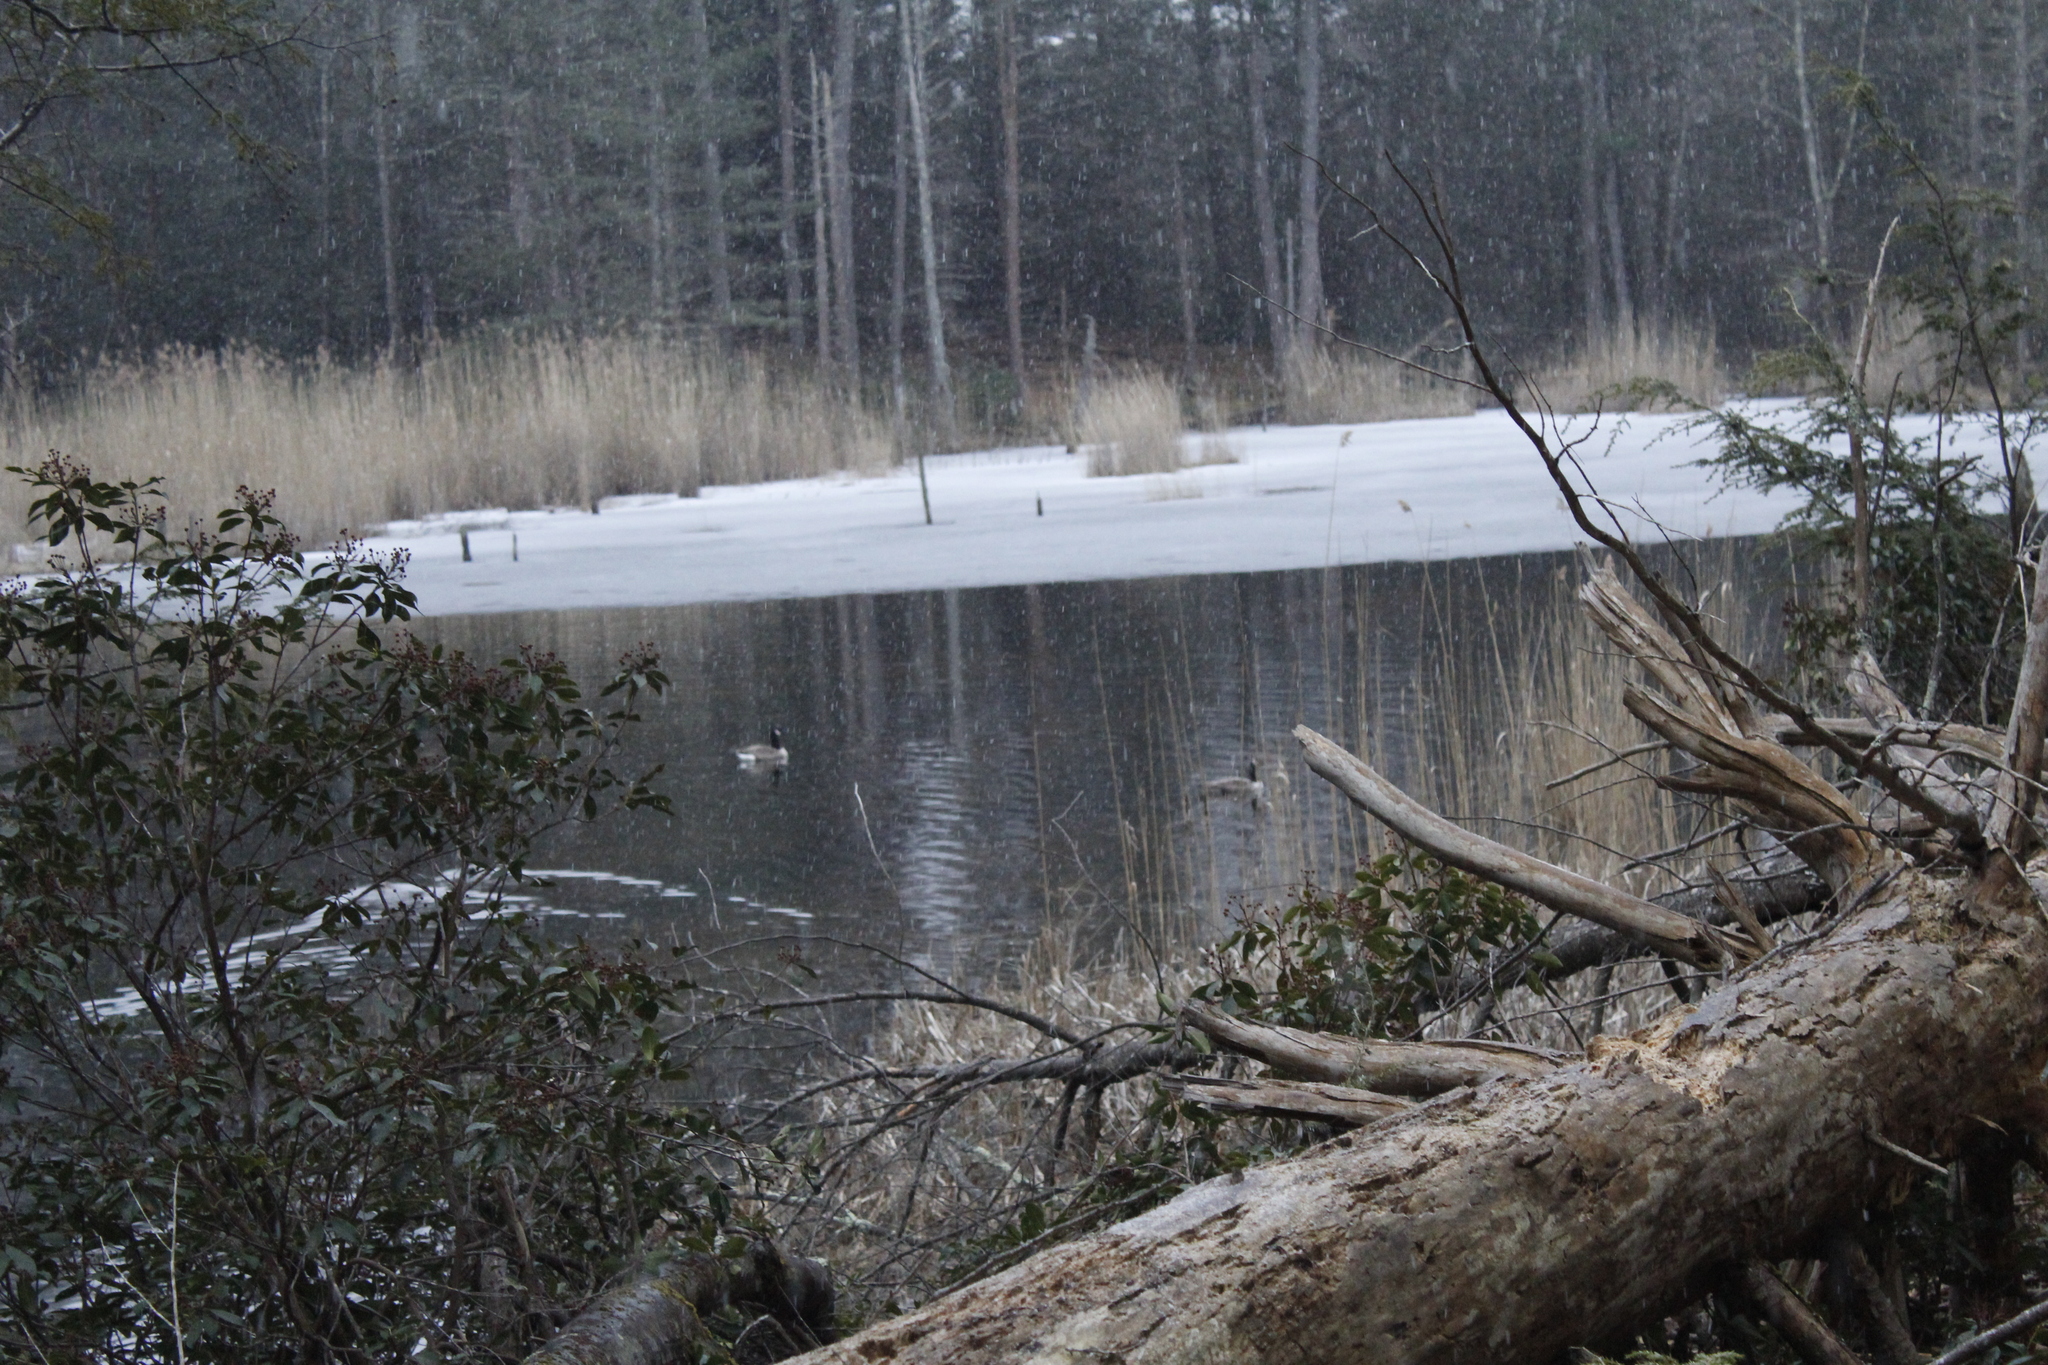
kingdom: Animalia
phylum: Chordata
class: Aves
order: Anseriformes
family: Anatidae
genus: Branta
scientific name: Branta canadensis
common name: Canada goose
